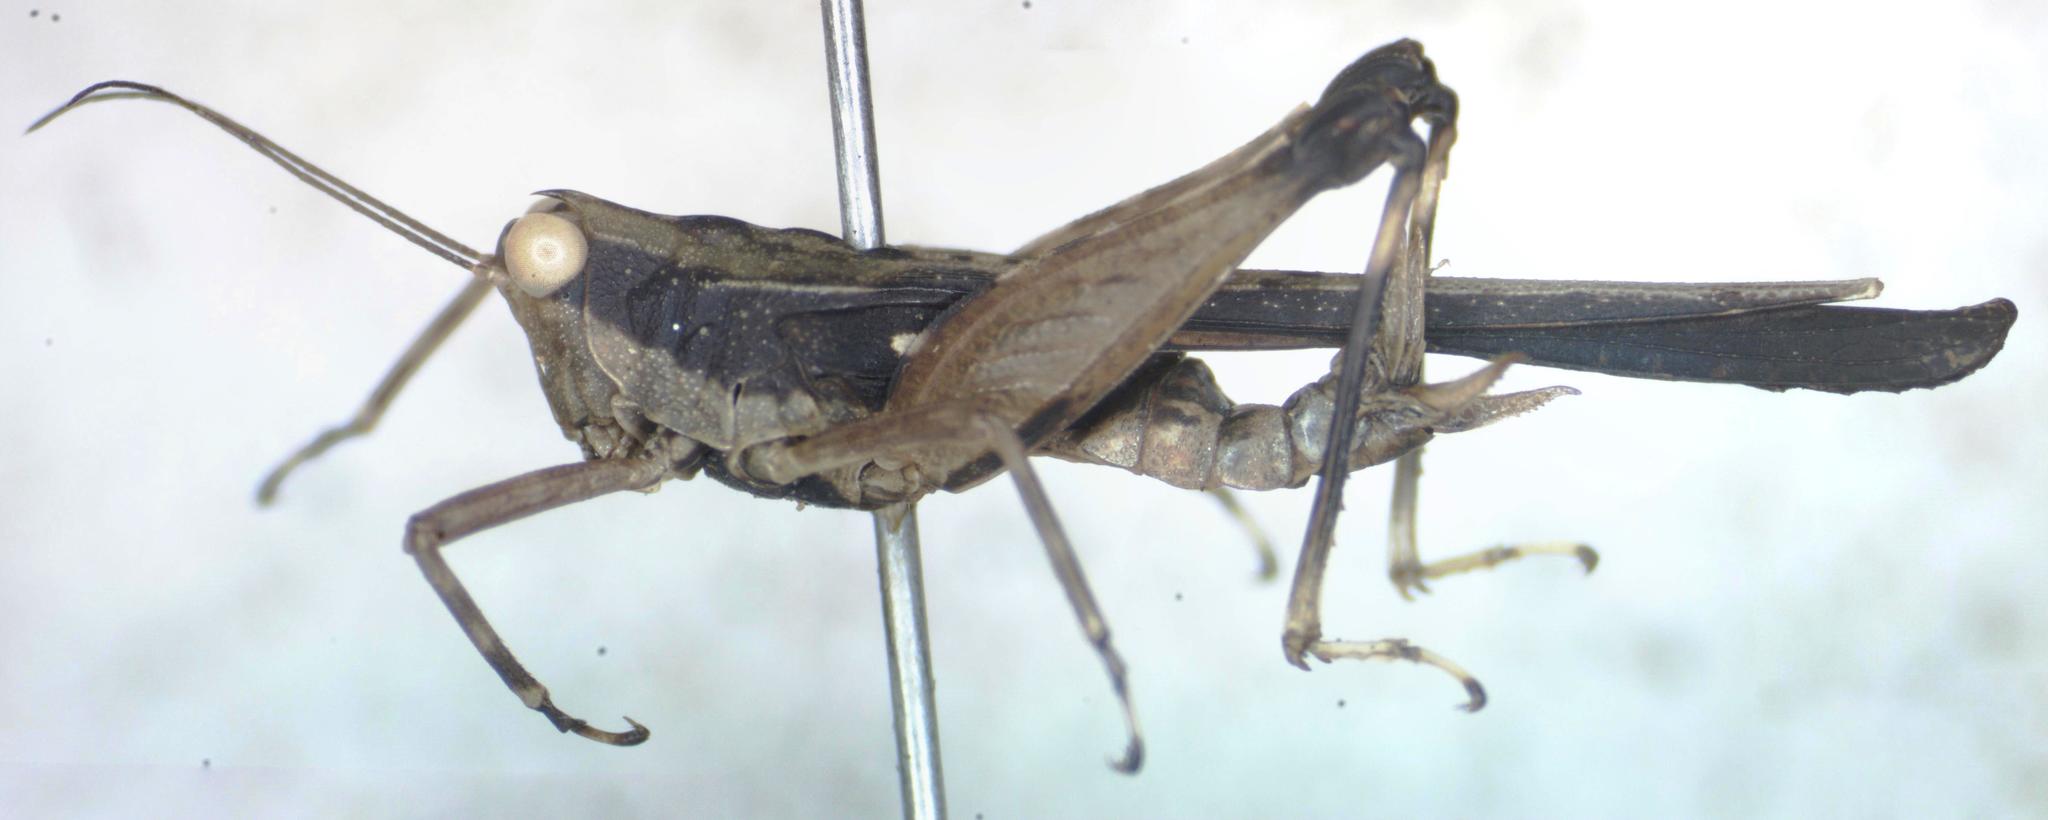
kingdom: Animalia
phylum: Arthropoda
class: Insecta
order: Orthoptera
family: Tetrigidae
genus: Scaria
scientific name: Scaria fasciata
